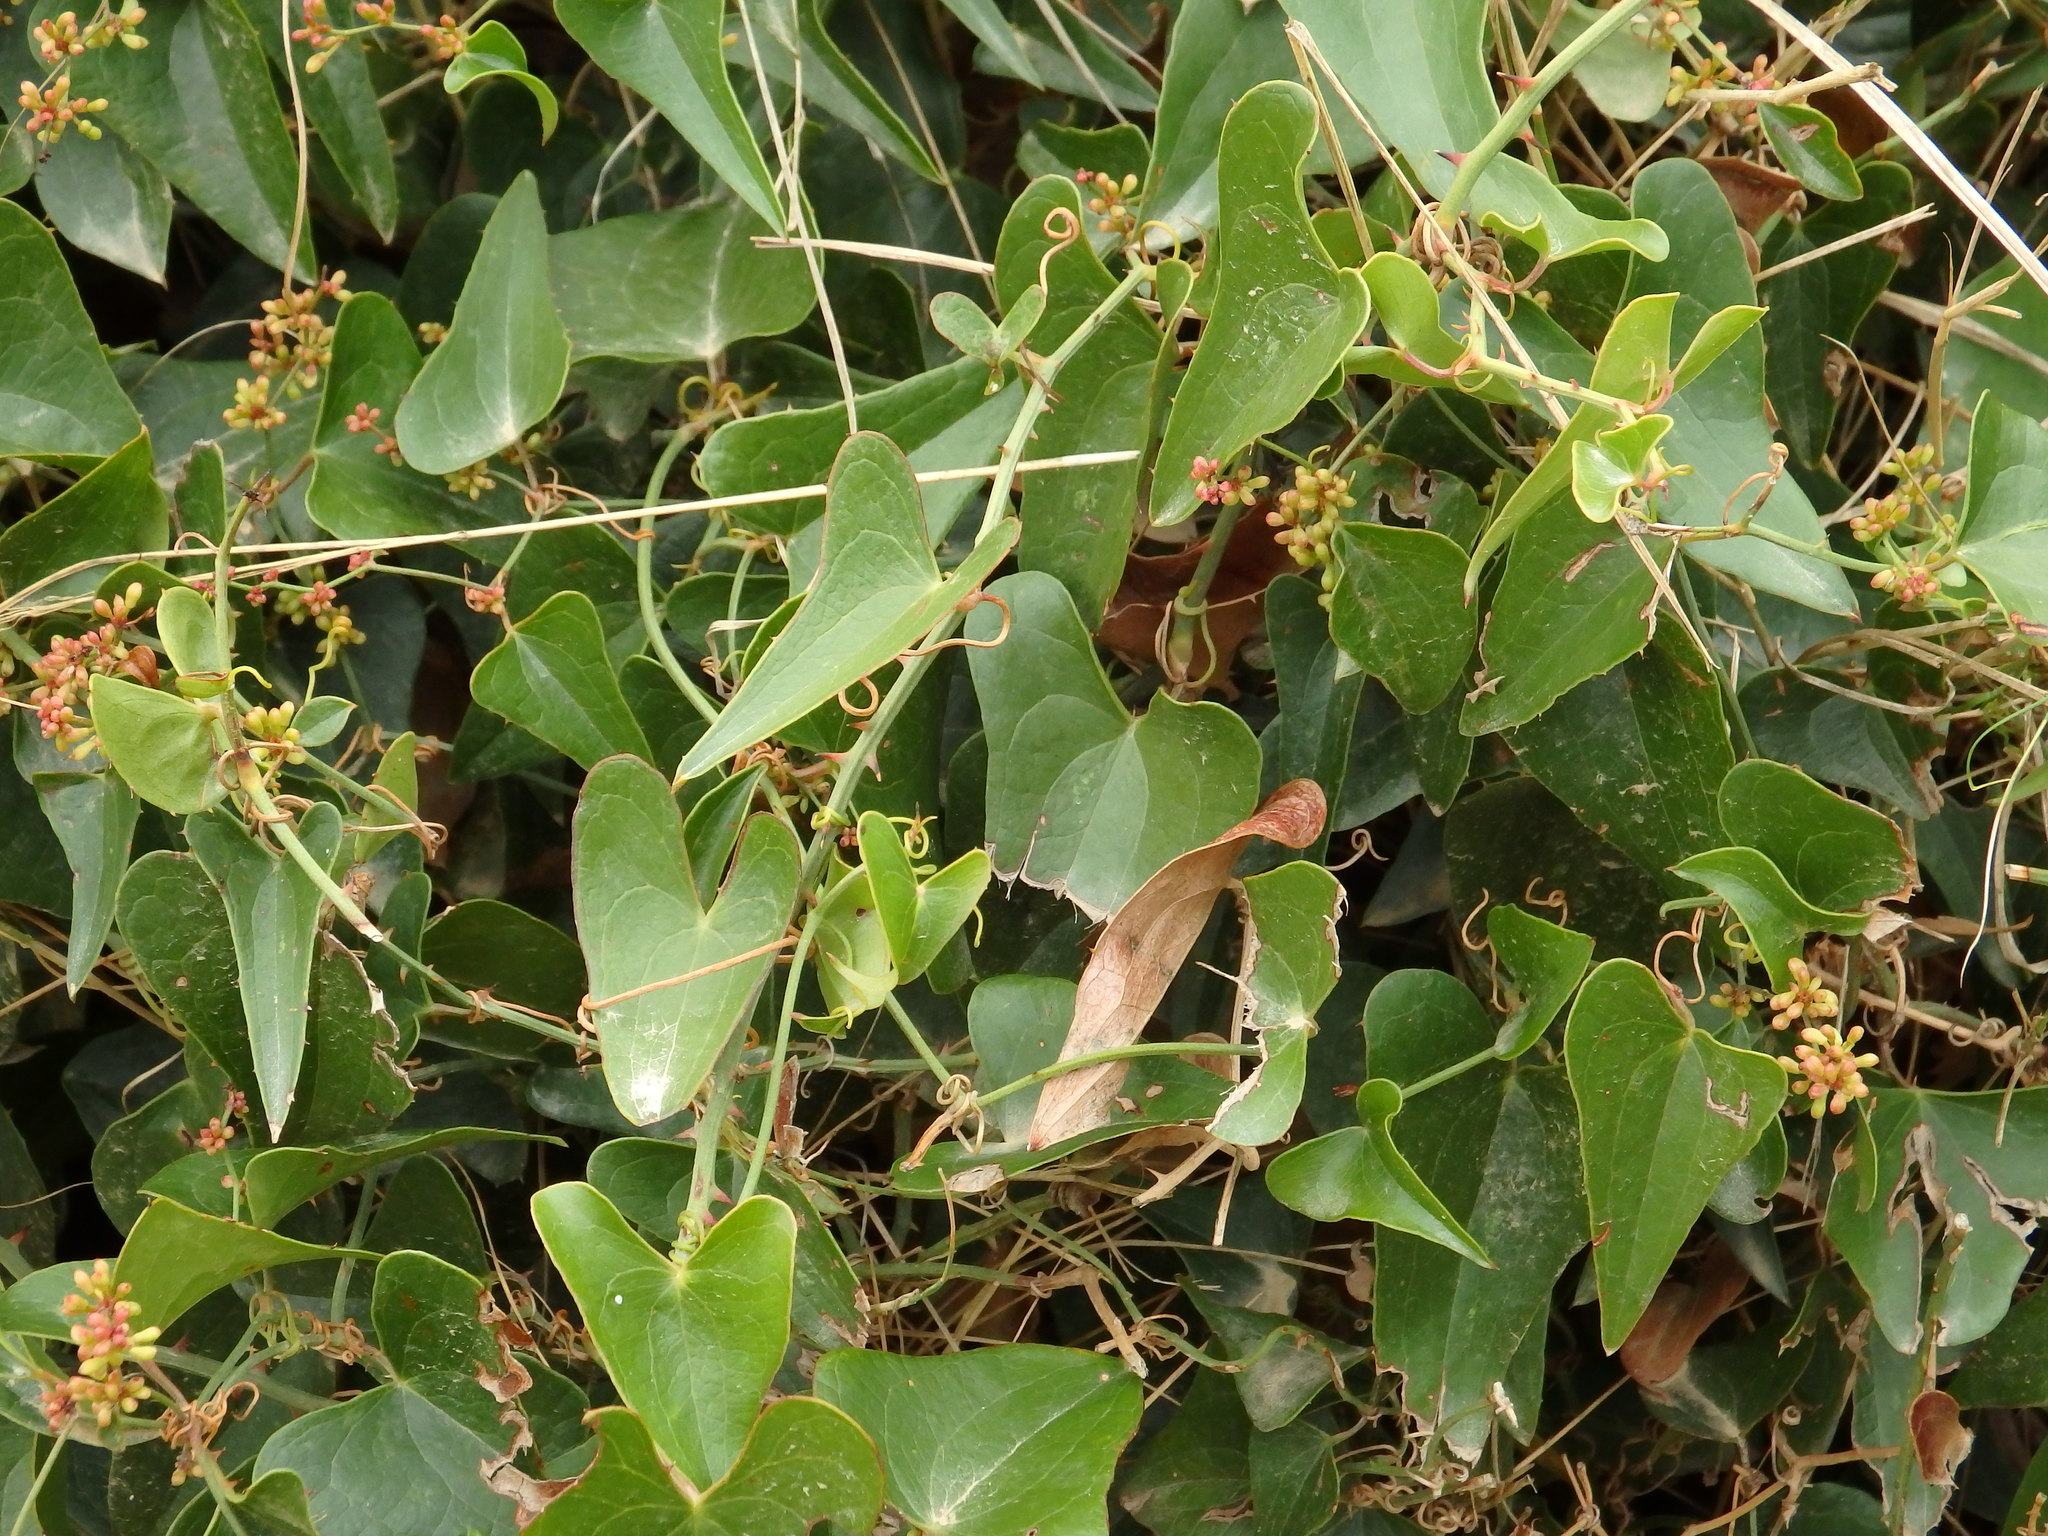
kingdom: Plantae
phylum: Tracheophyta
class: Liliopsida
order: Liliales
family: Smilacaceae
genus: Smilax
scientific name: Smilax aspera
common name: Common smilax
